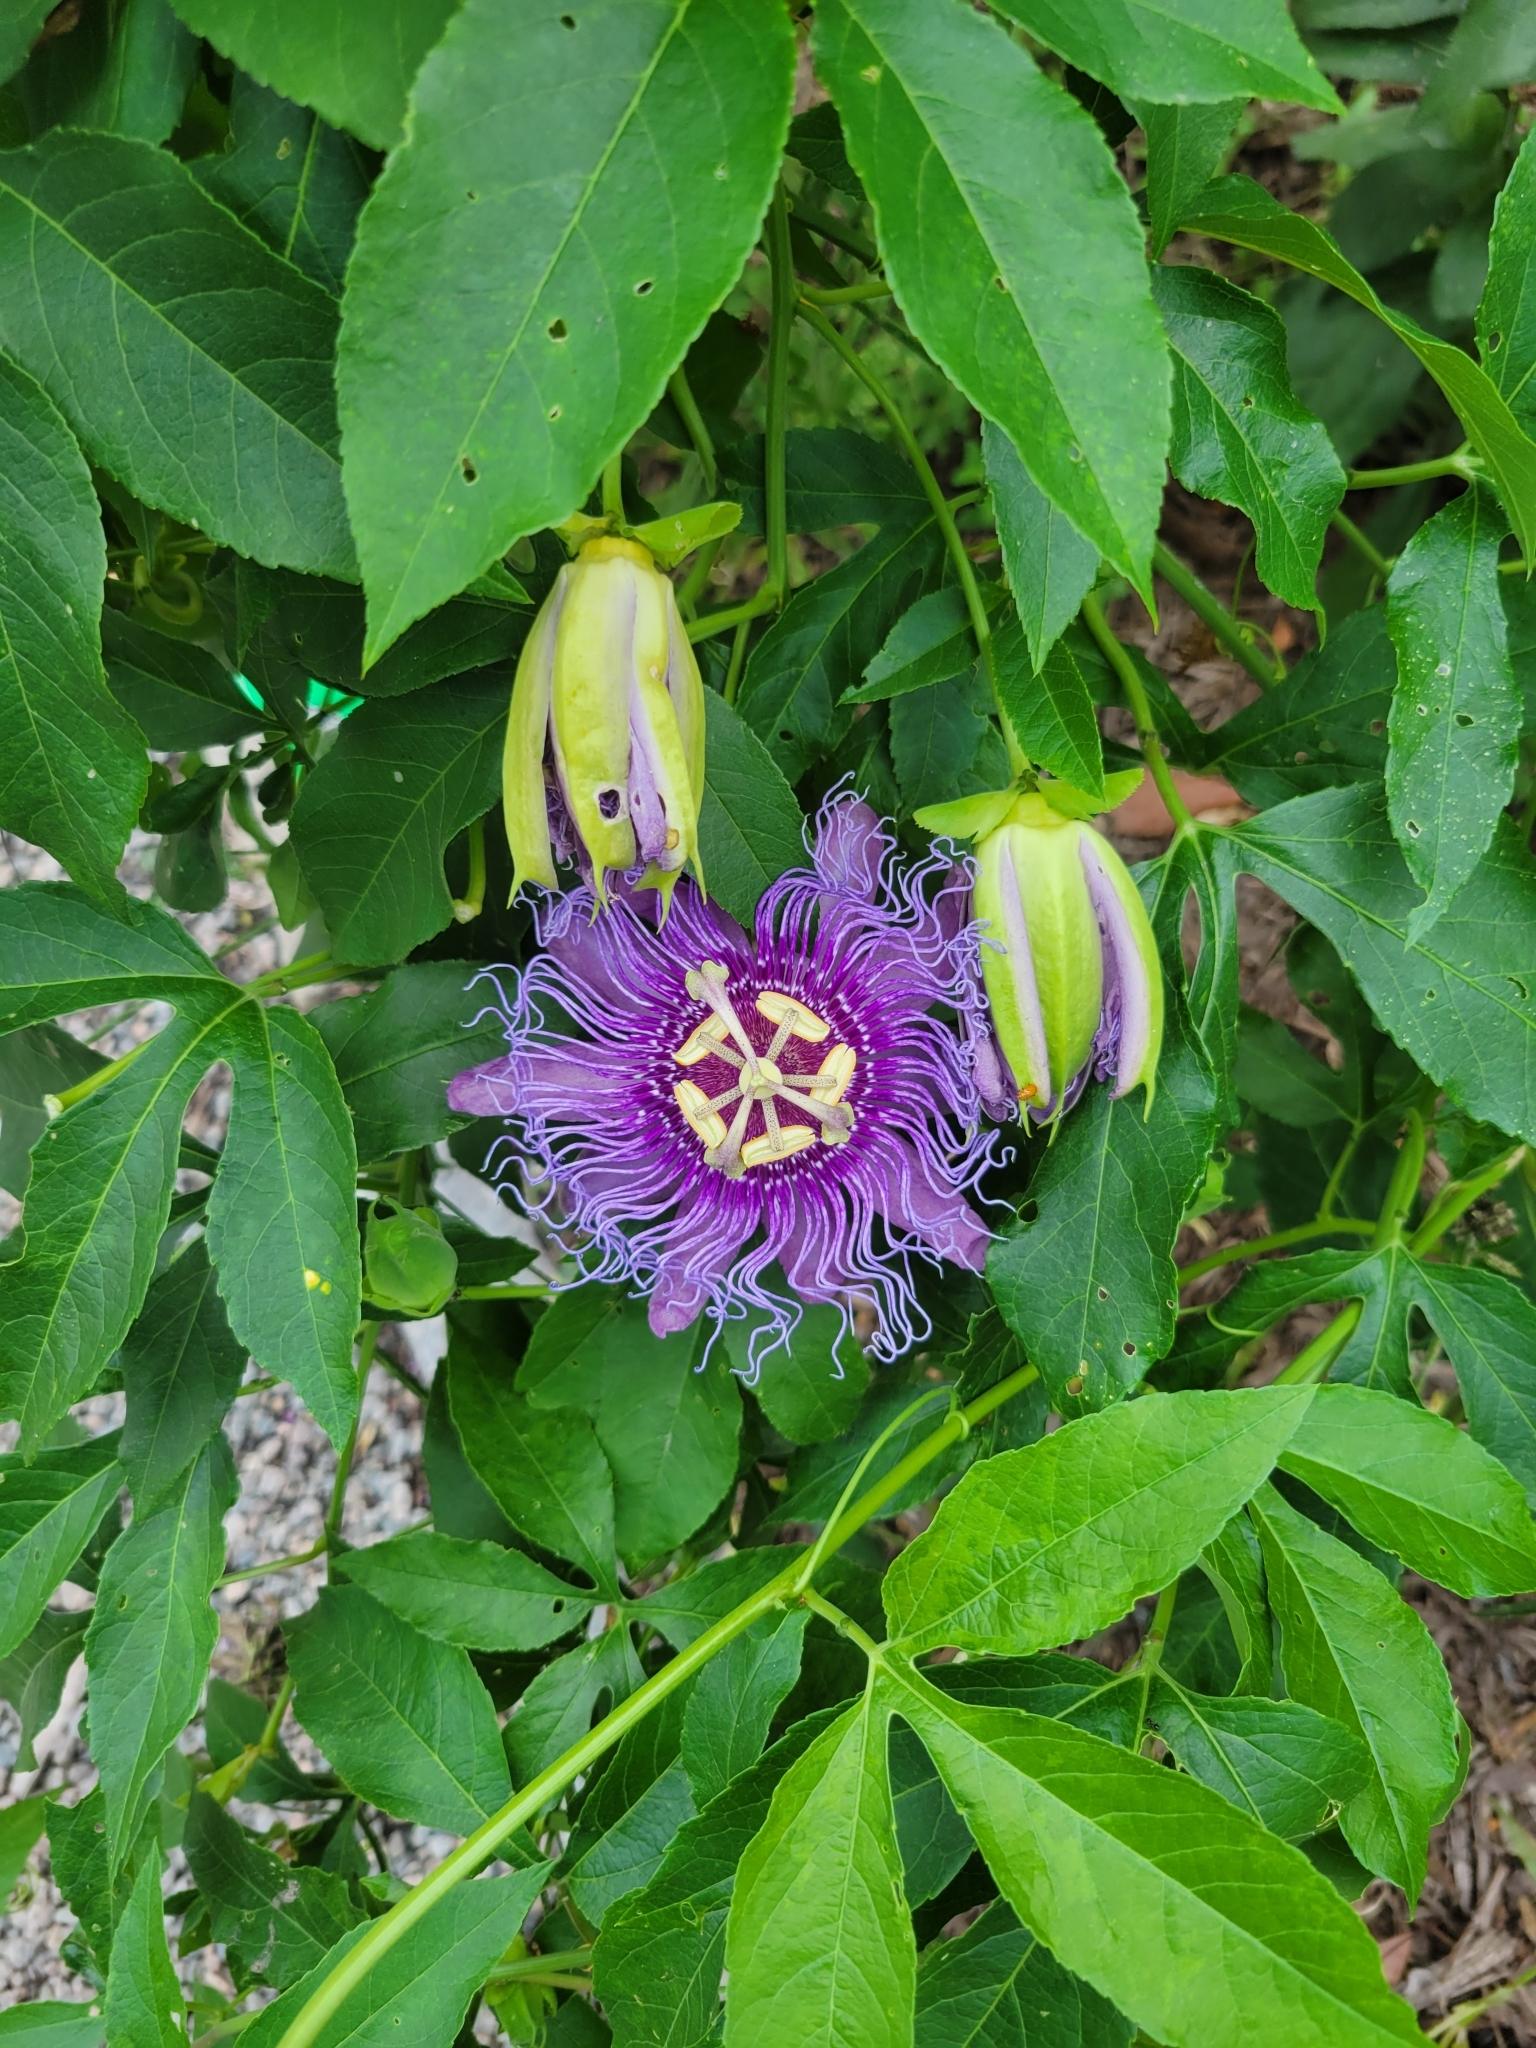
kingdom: Plantae
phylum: Tracheophyta
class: Magnoliopsida
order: Malpighiales
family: Passifloraceae
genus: Passiflora
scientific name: Passiflora
